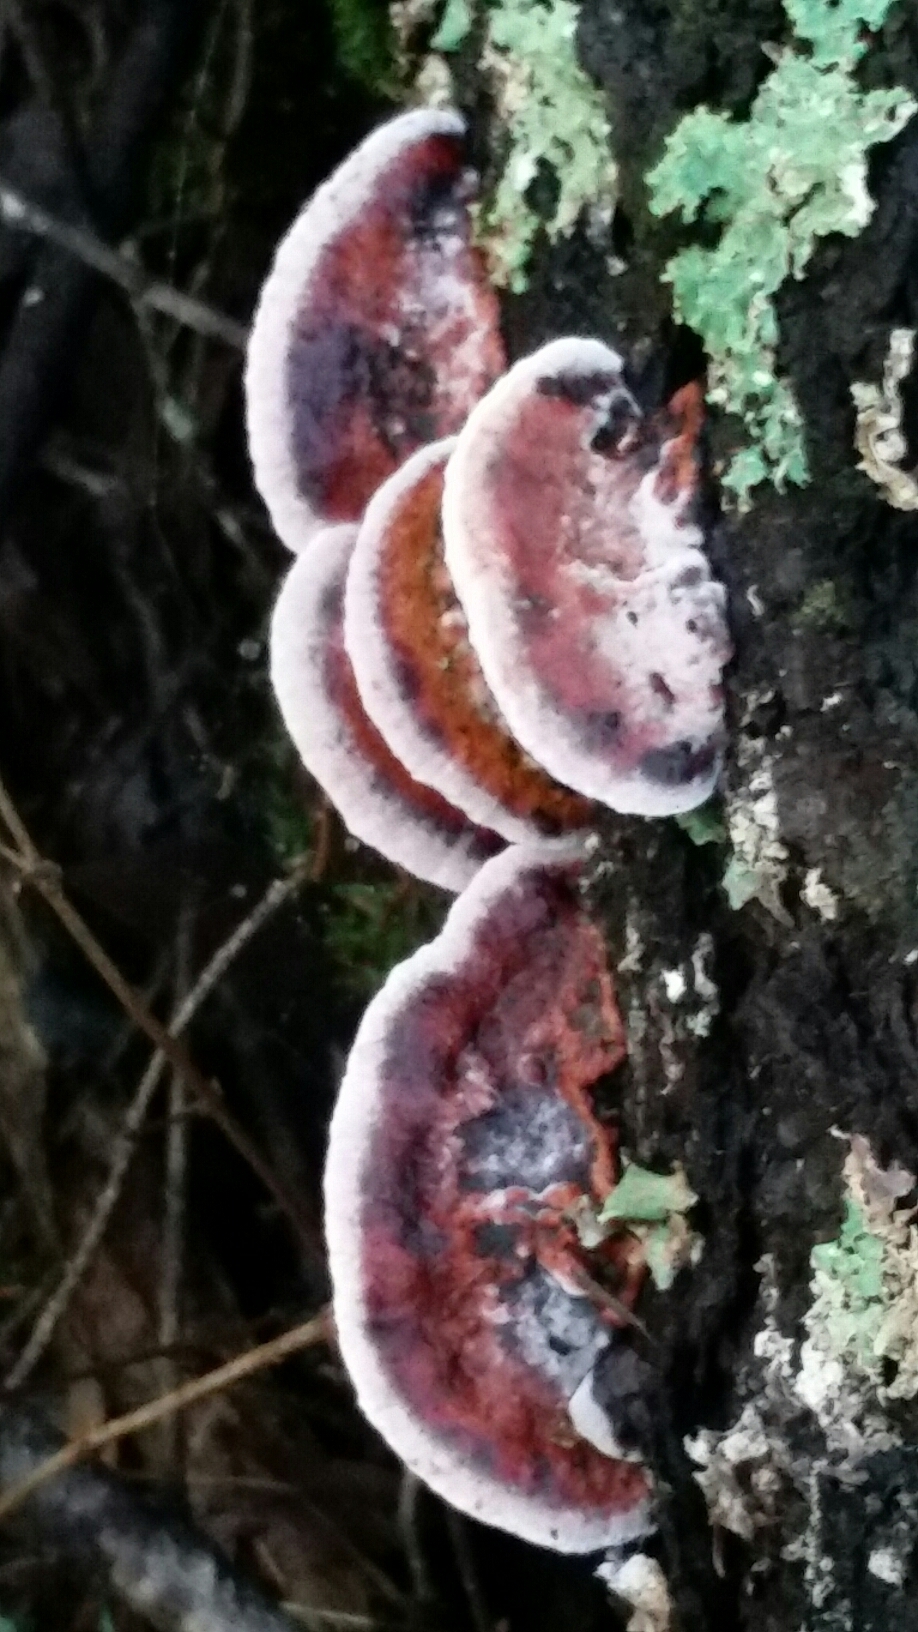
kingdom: Fungi
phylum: Basidiomycota
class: Agaricomycetes
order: Polyporales
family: Fomitopsidaceae
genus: Rhodofomes
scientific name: Rhodofomes cajanderi
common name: Rosy conk
